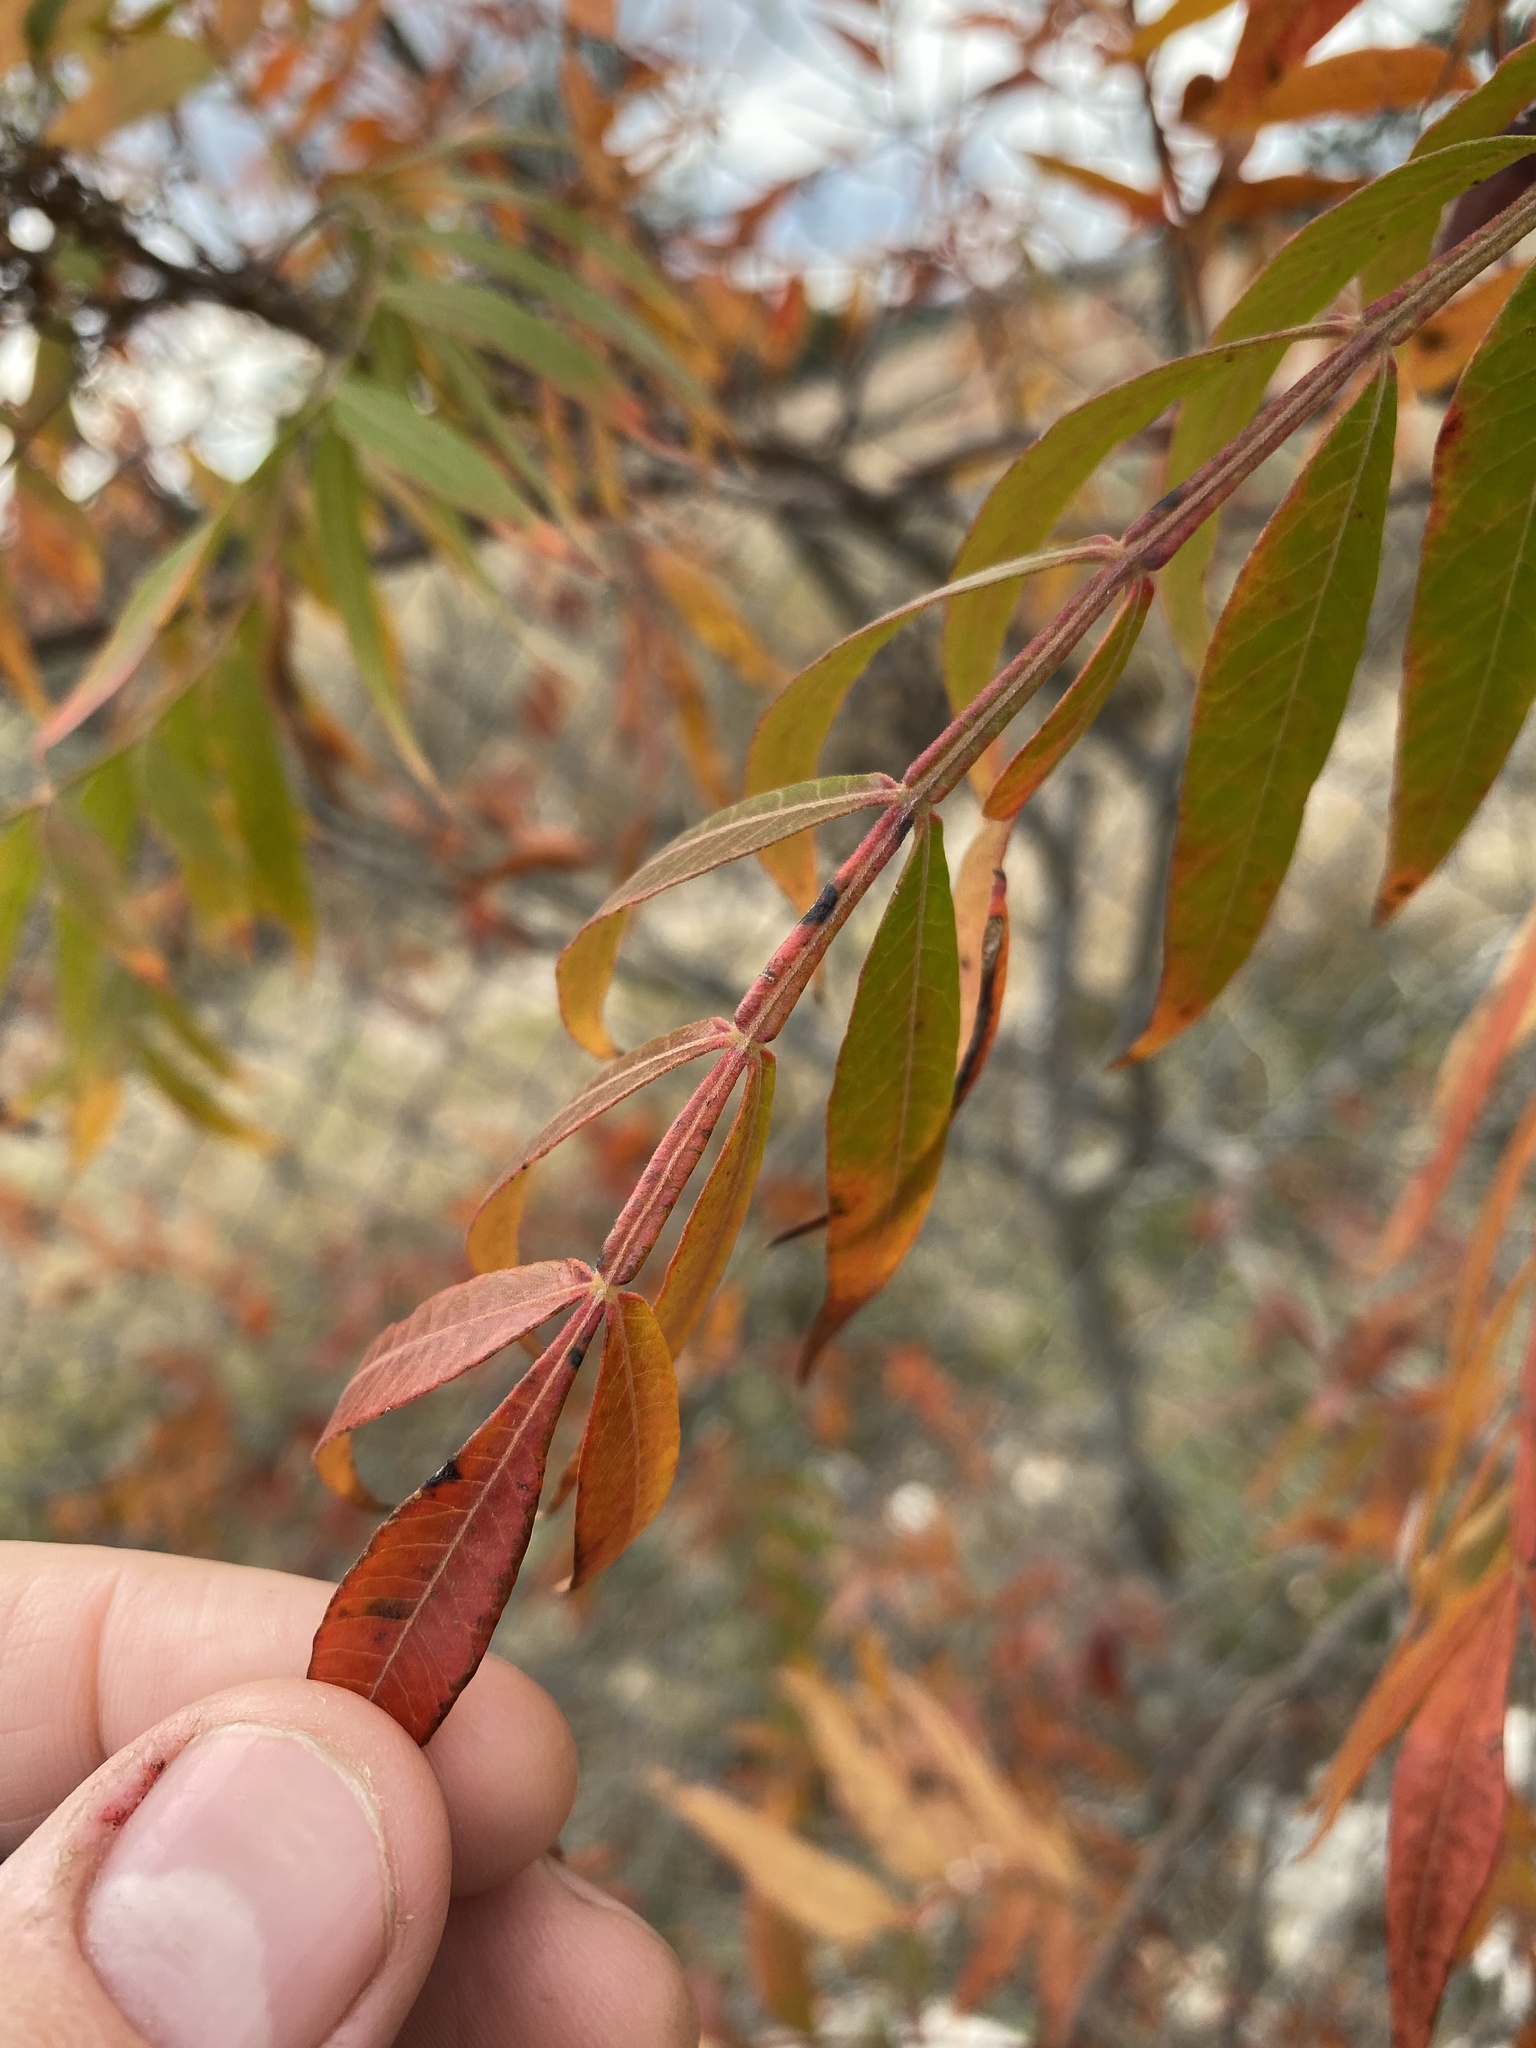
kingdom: Plantae
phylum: Tracheophyta
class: Magnoliopsida
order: Sapindales
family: Anacardiaceae
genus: Rhus
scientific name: Rhus lanceolata
